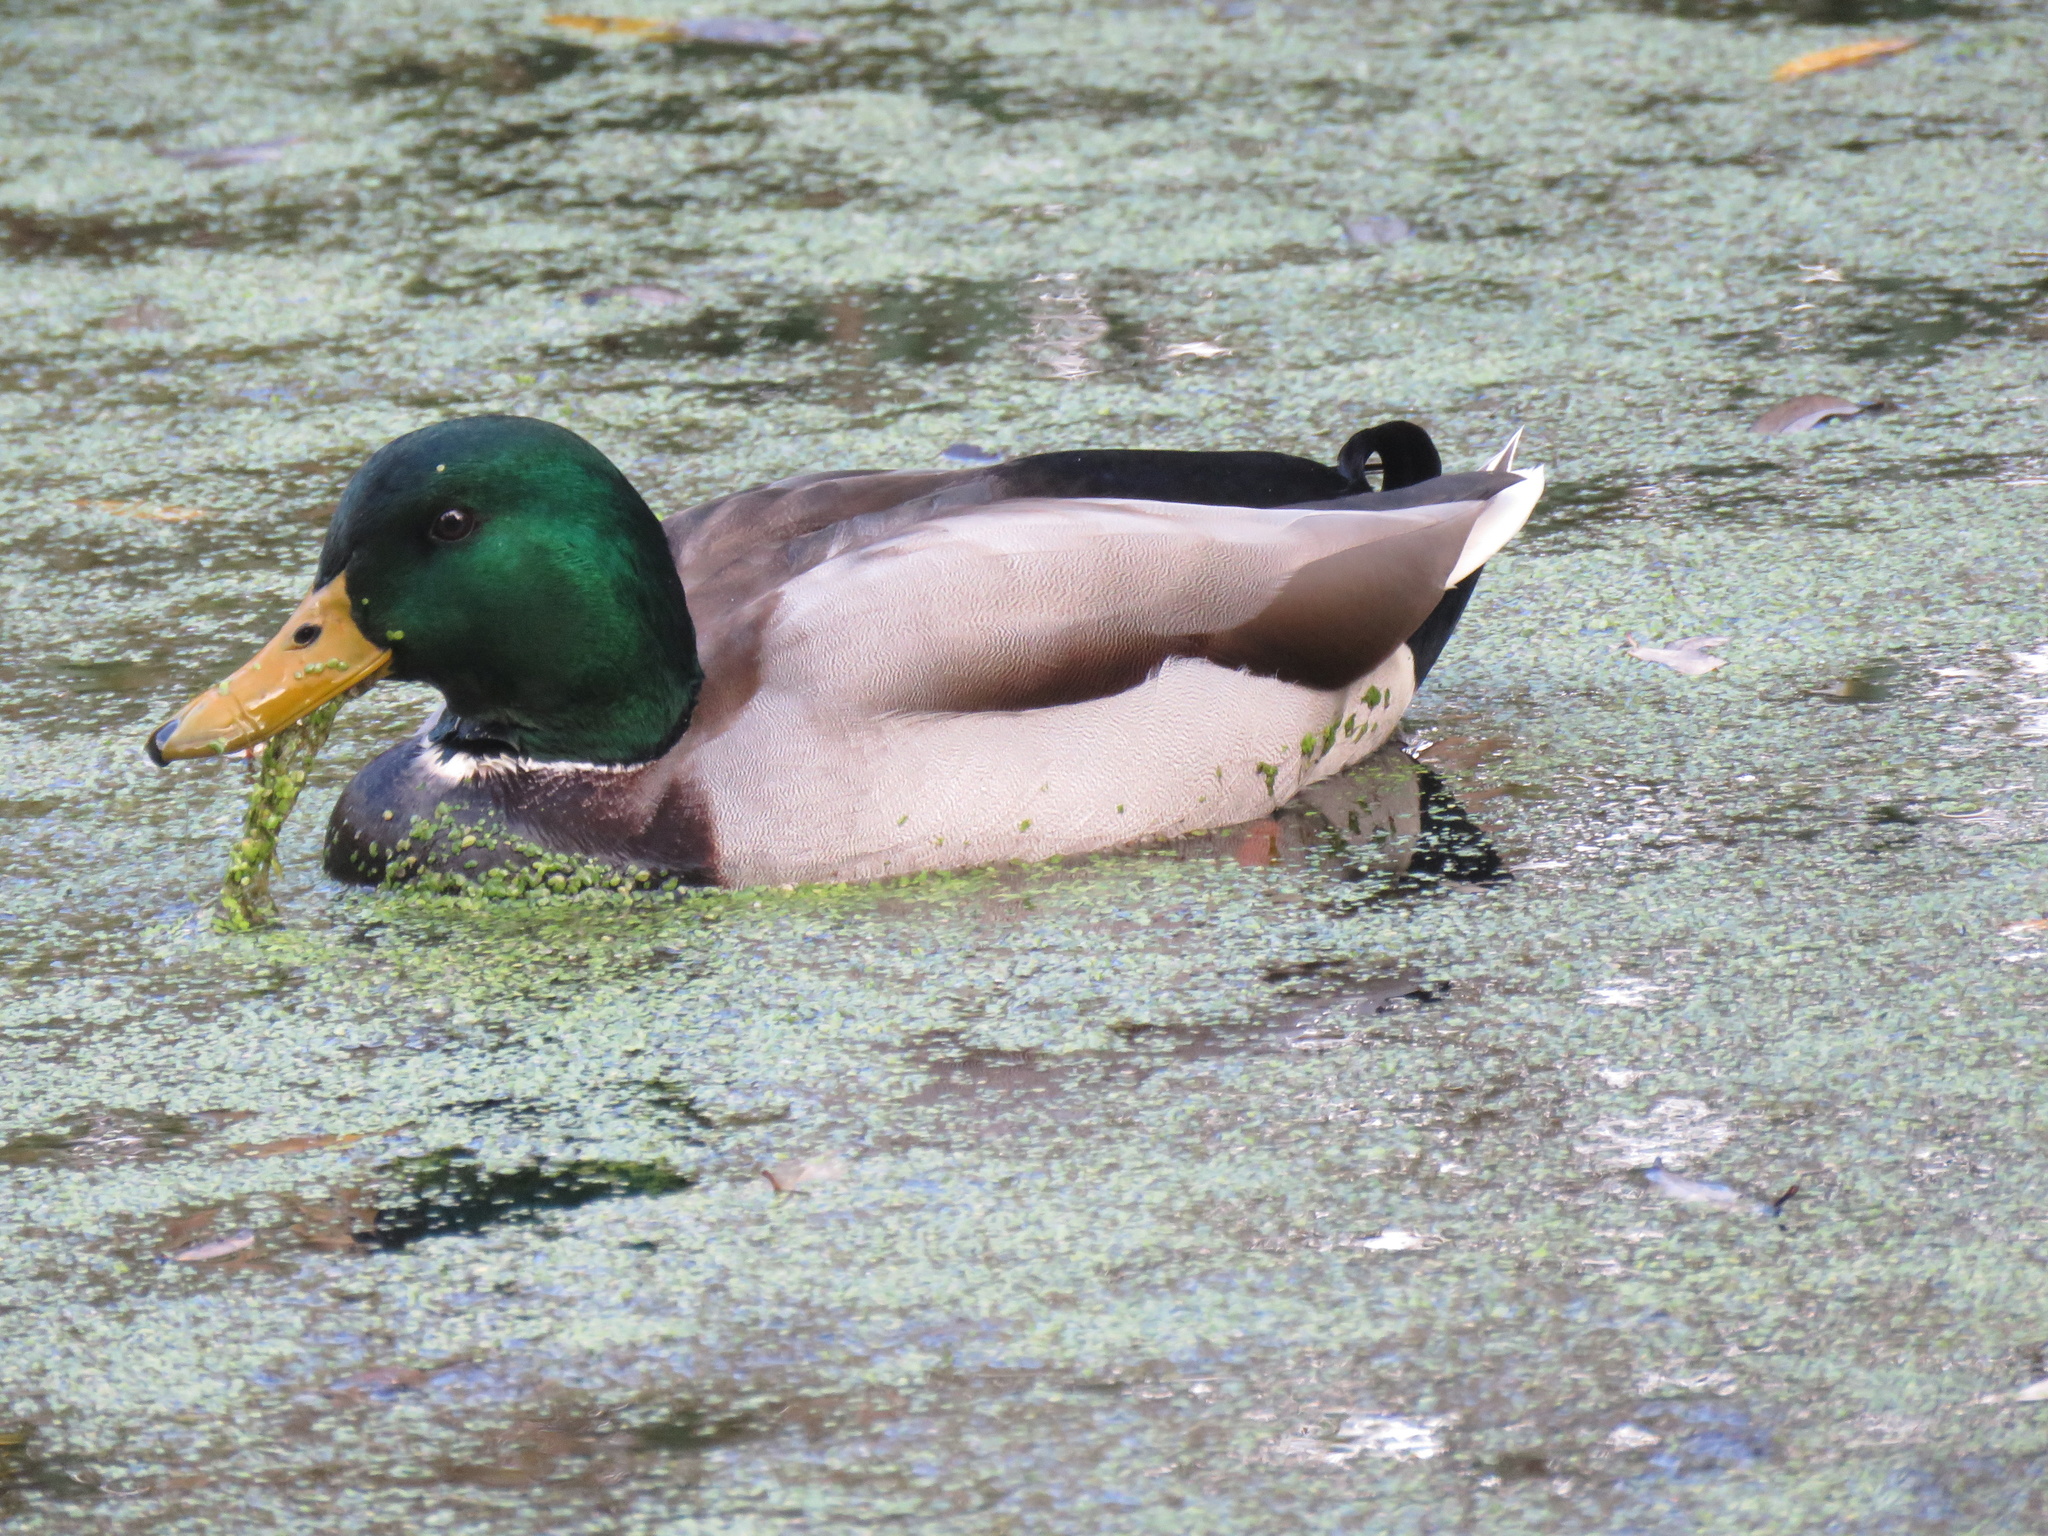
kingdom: Animalia
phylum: Chordata
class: Aves
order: Anseriformes
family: Anatidae
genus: Anas
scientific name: Anas platyrhynchos
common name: Mallard
